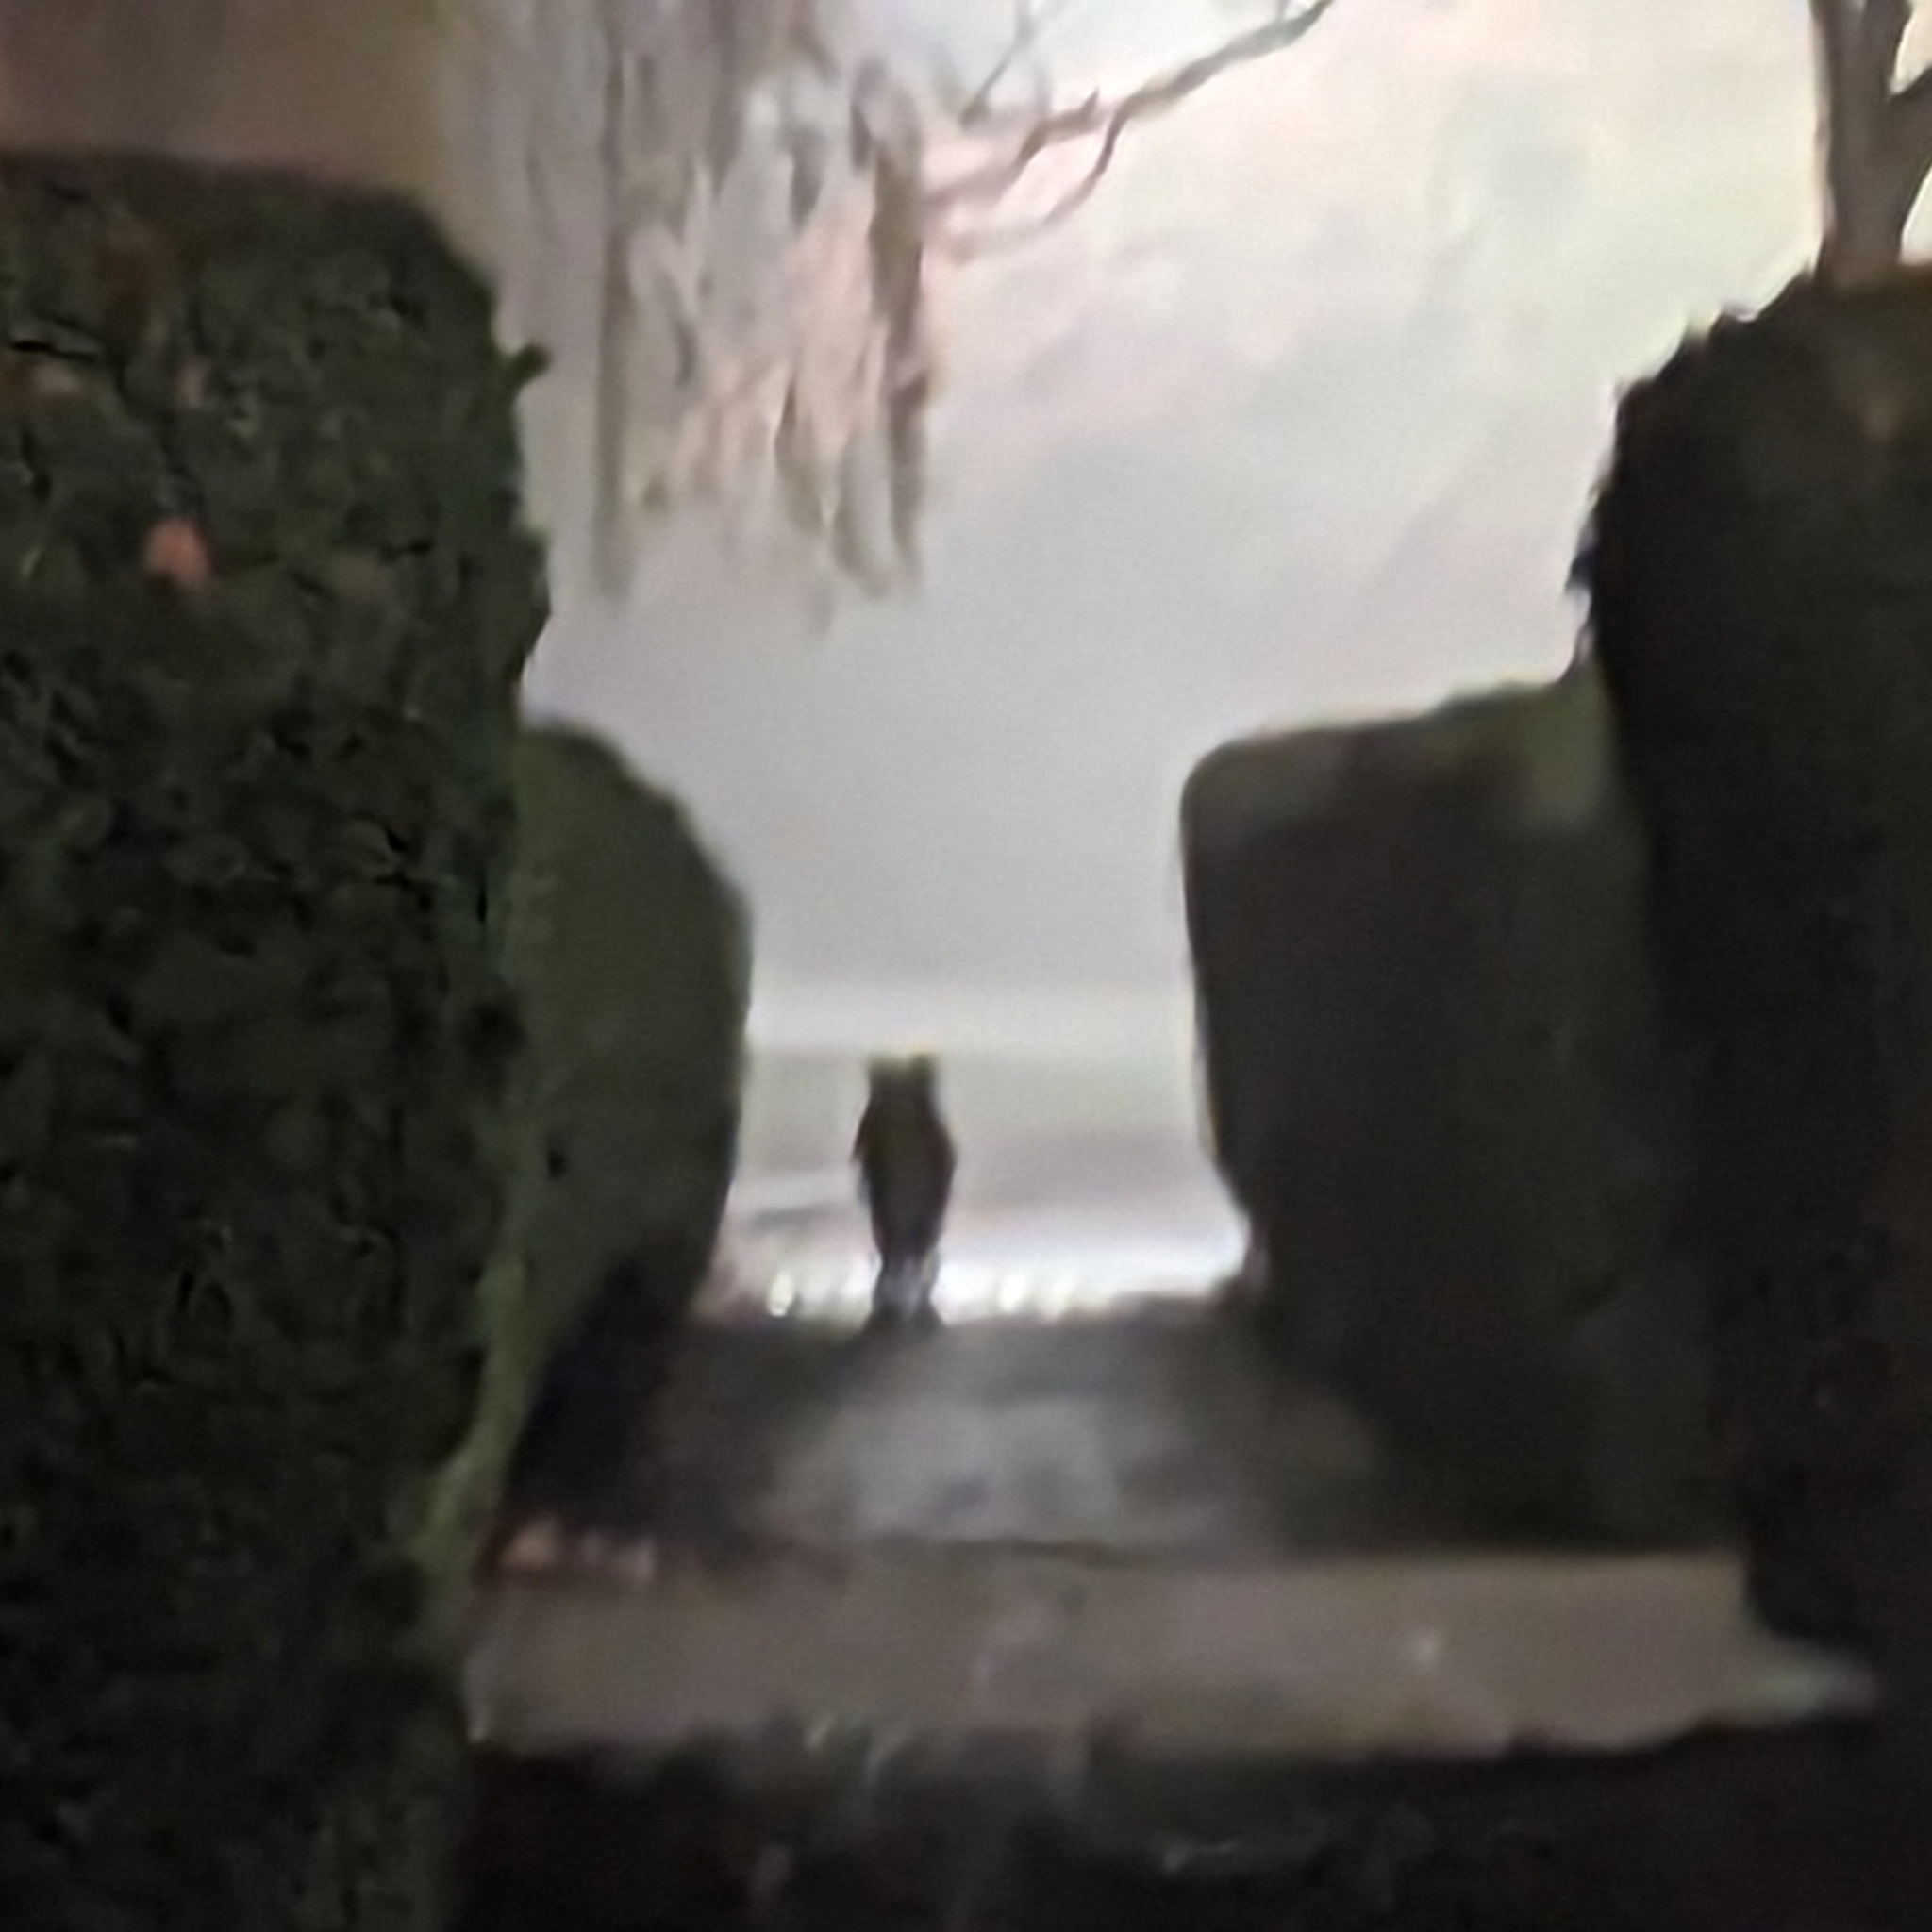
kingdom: Animalia
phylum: Chordata
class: Mammalia
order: Carnivora
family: Canidae
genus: Canis
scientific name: Canis latrans
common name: Coyote
